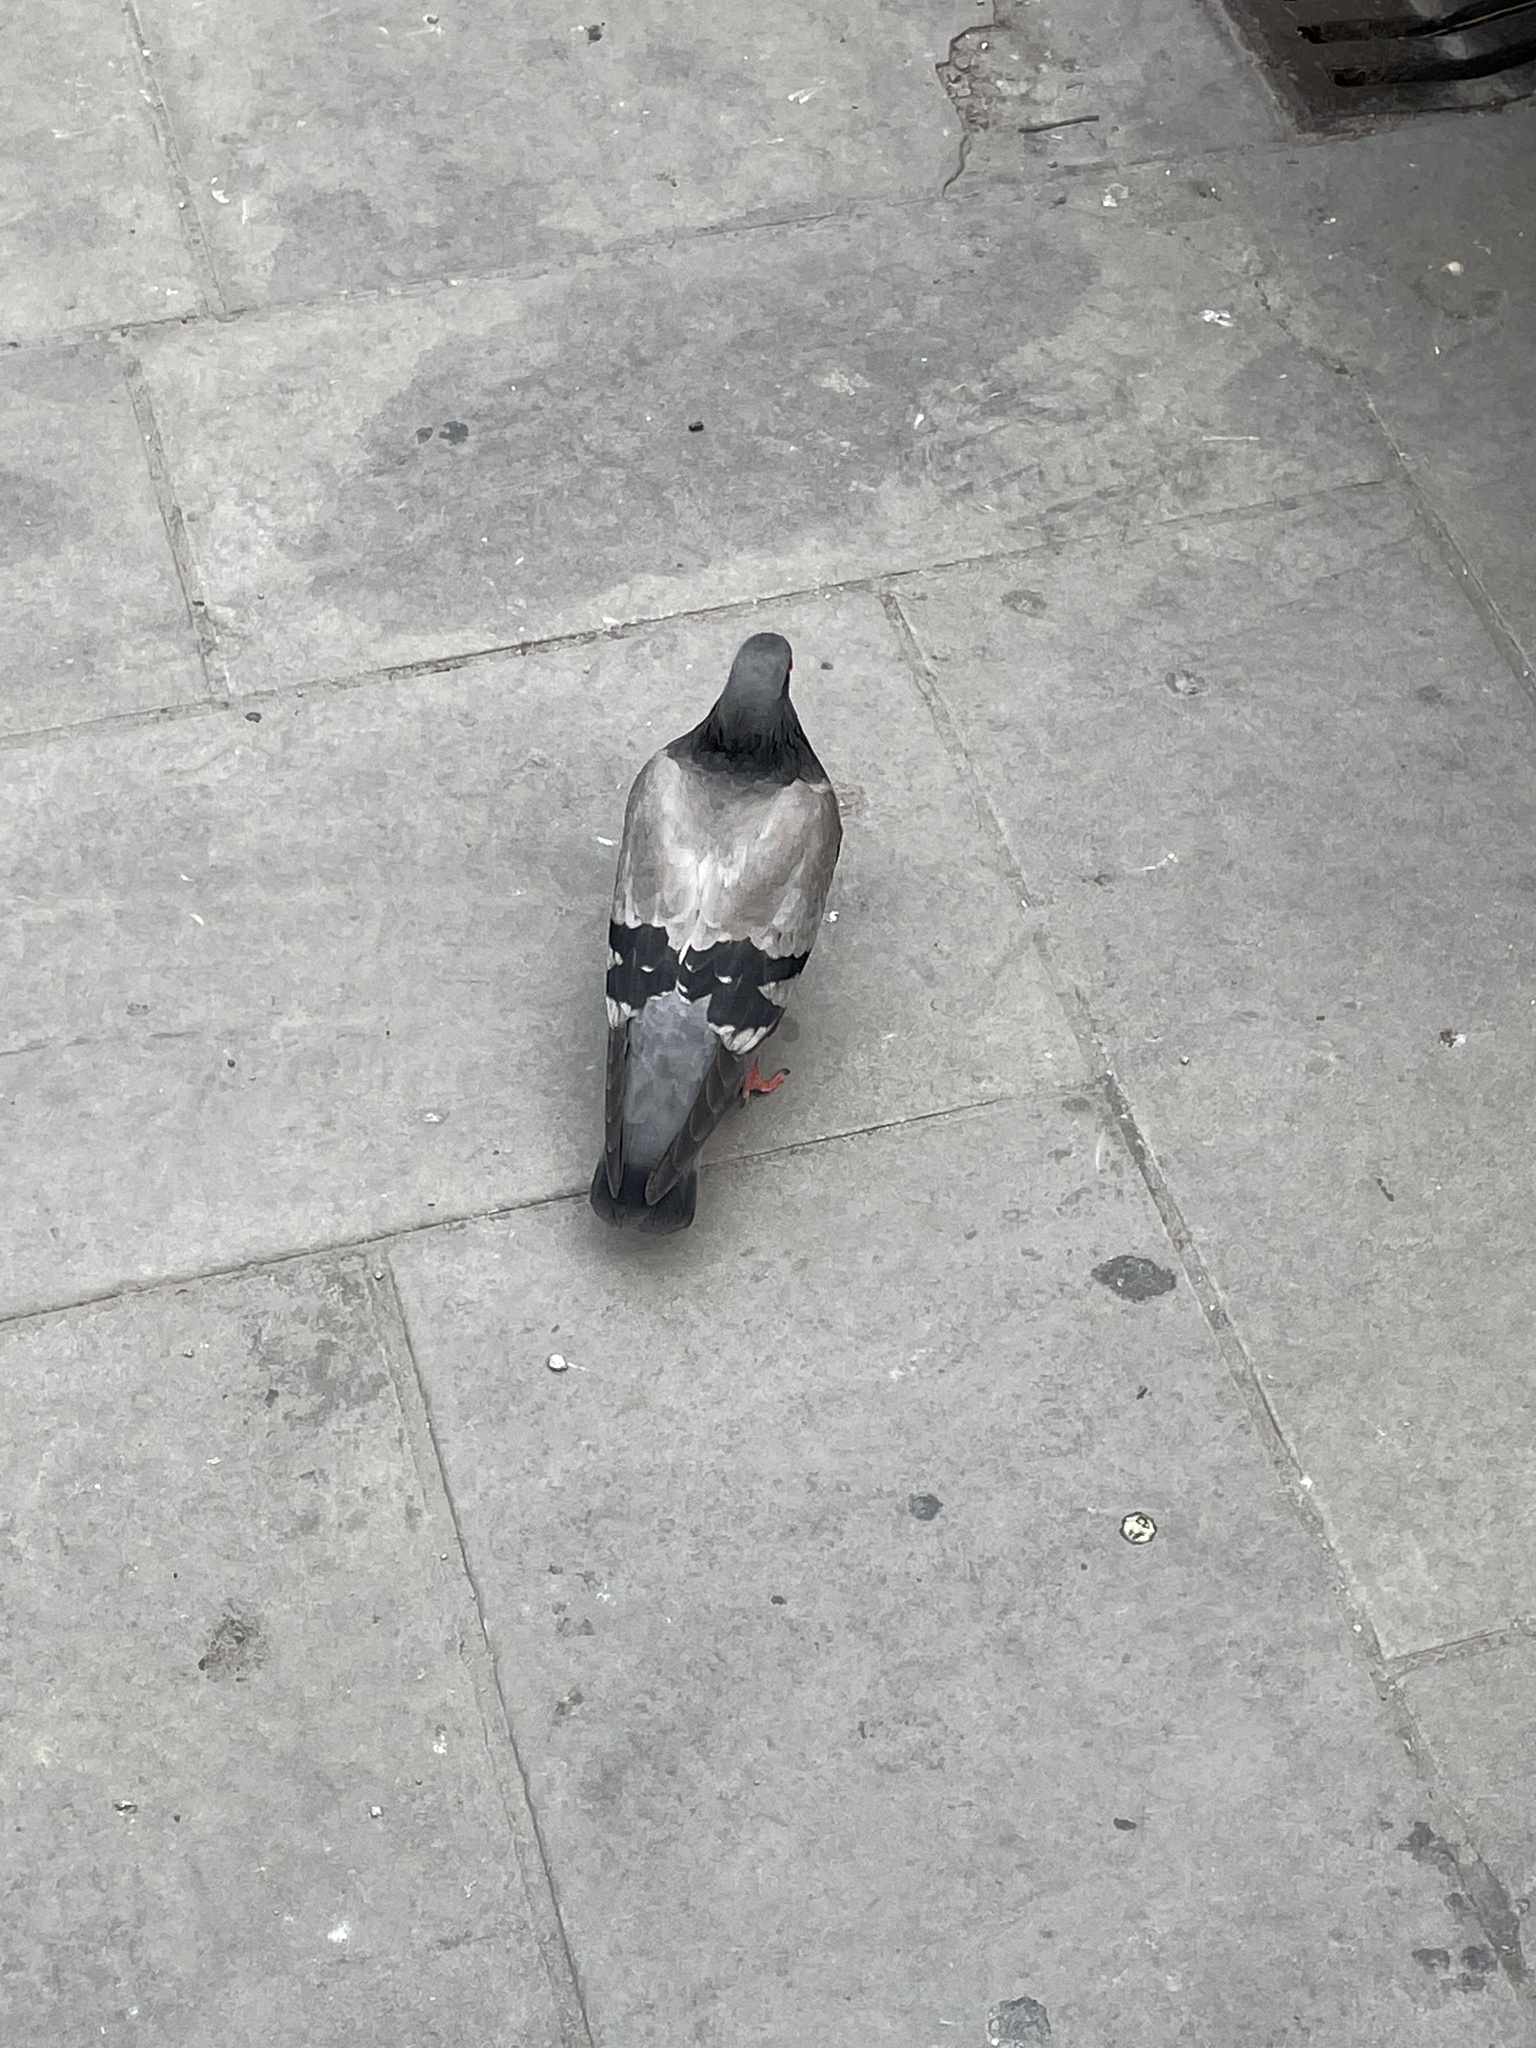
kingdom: Animalia
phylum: Chordata
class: Aves
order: Columbiformes
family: Columbidae
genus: Columba
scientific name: Columba livia
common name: Rock pigeon
